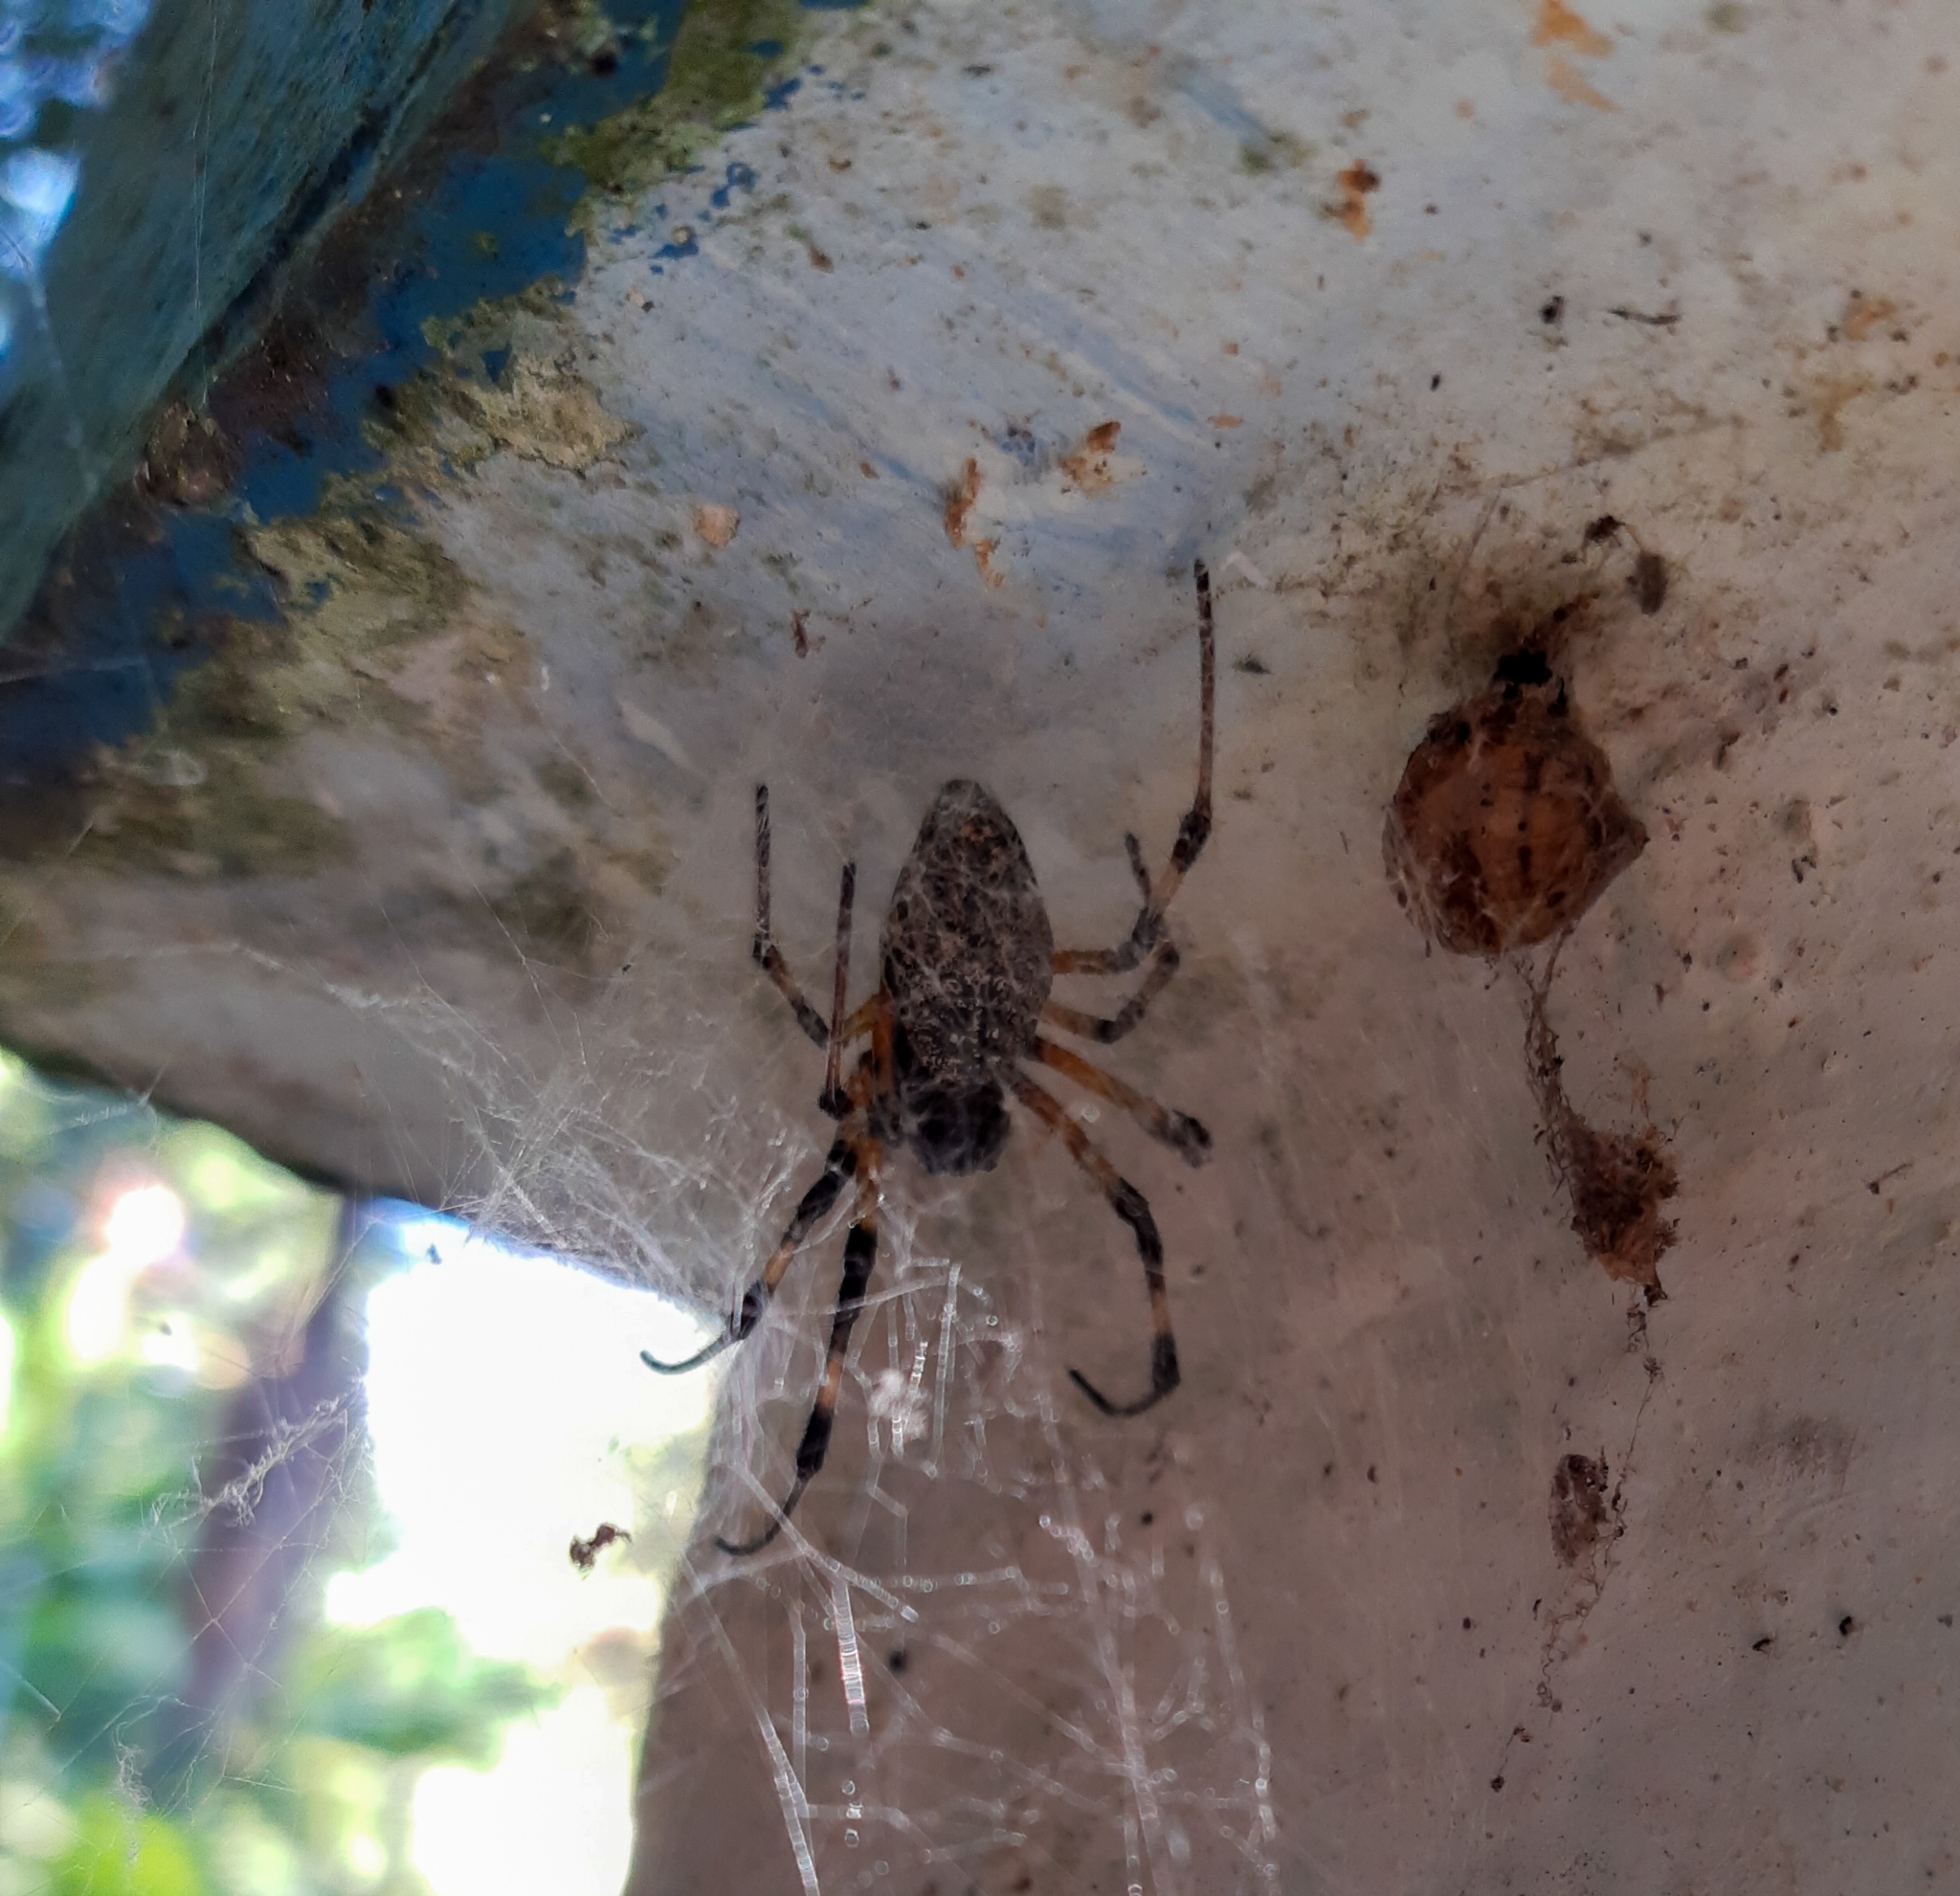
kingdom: Animalia
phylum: Arthropoda
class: Arachnida
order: Araneae
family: Araneidae
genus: Nephilingis
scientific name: Nephilingis cruentata
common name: African hermit spider
